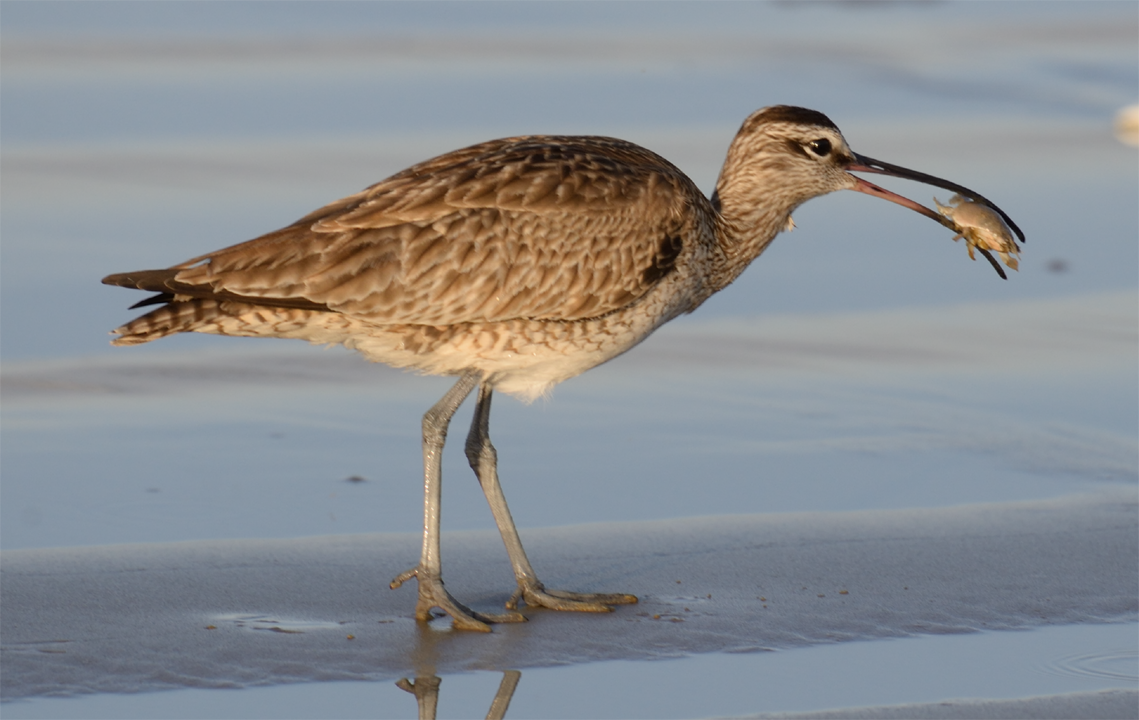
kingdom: Animalia
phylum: Chordata
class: Aves
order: Charadriiformes
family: Scolopacidae
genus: Numenius
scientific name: Numenius phaeopus
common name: Whimbrel
